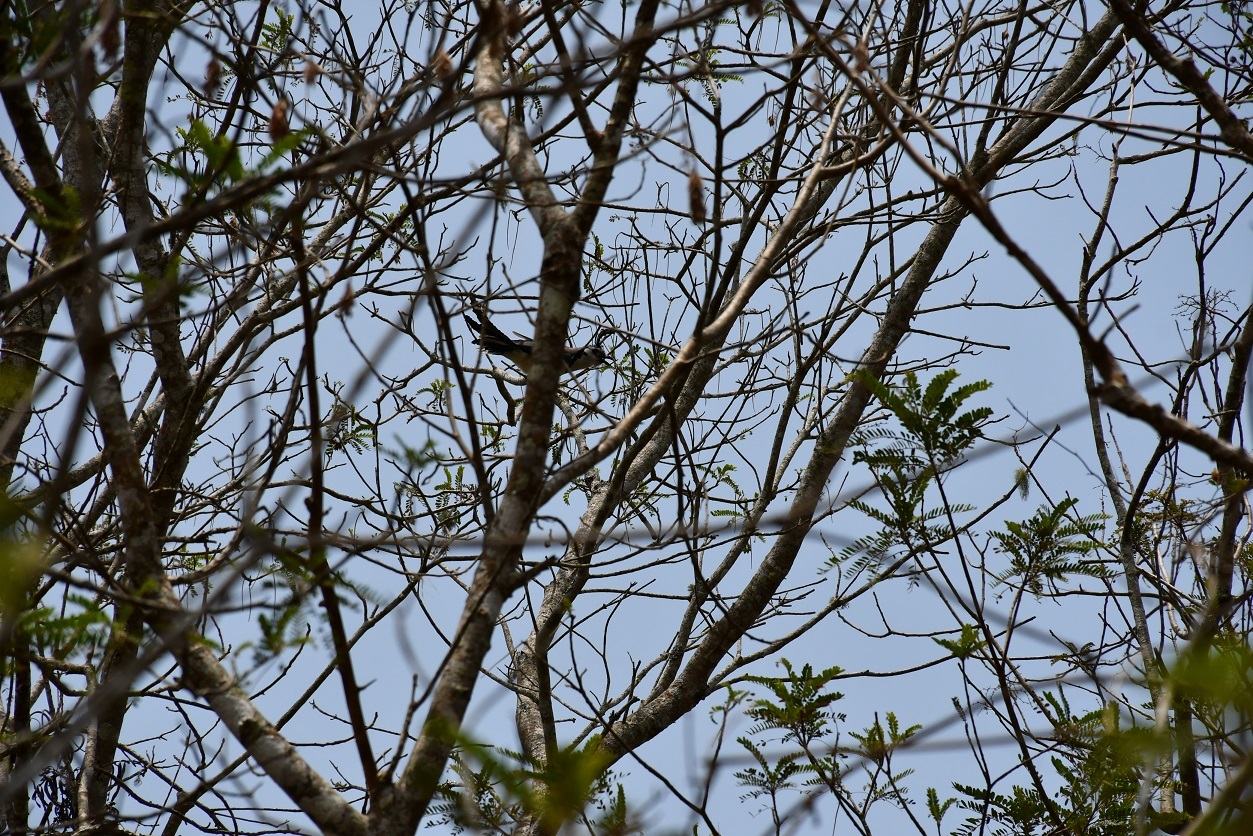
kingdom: Animalia
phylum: Chordata
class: Aves
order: Passeriformes
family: Corvidae
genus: Calocitta
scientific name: Calocitta formosa
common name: White-throated magpie-jay
